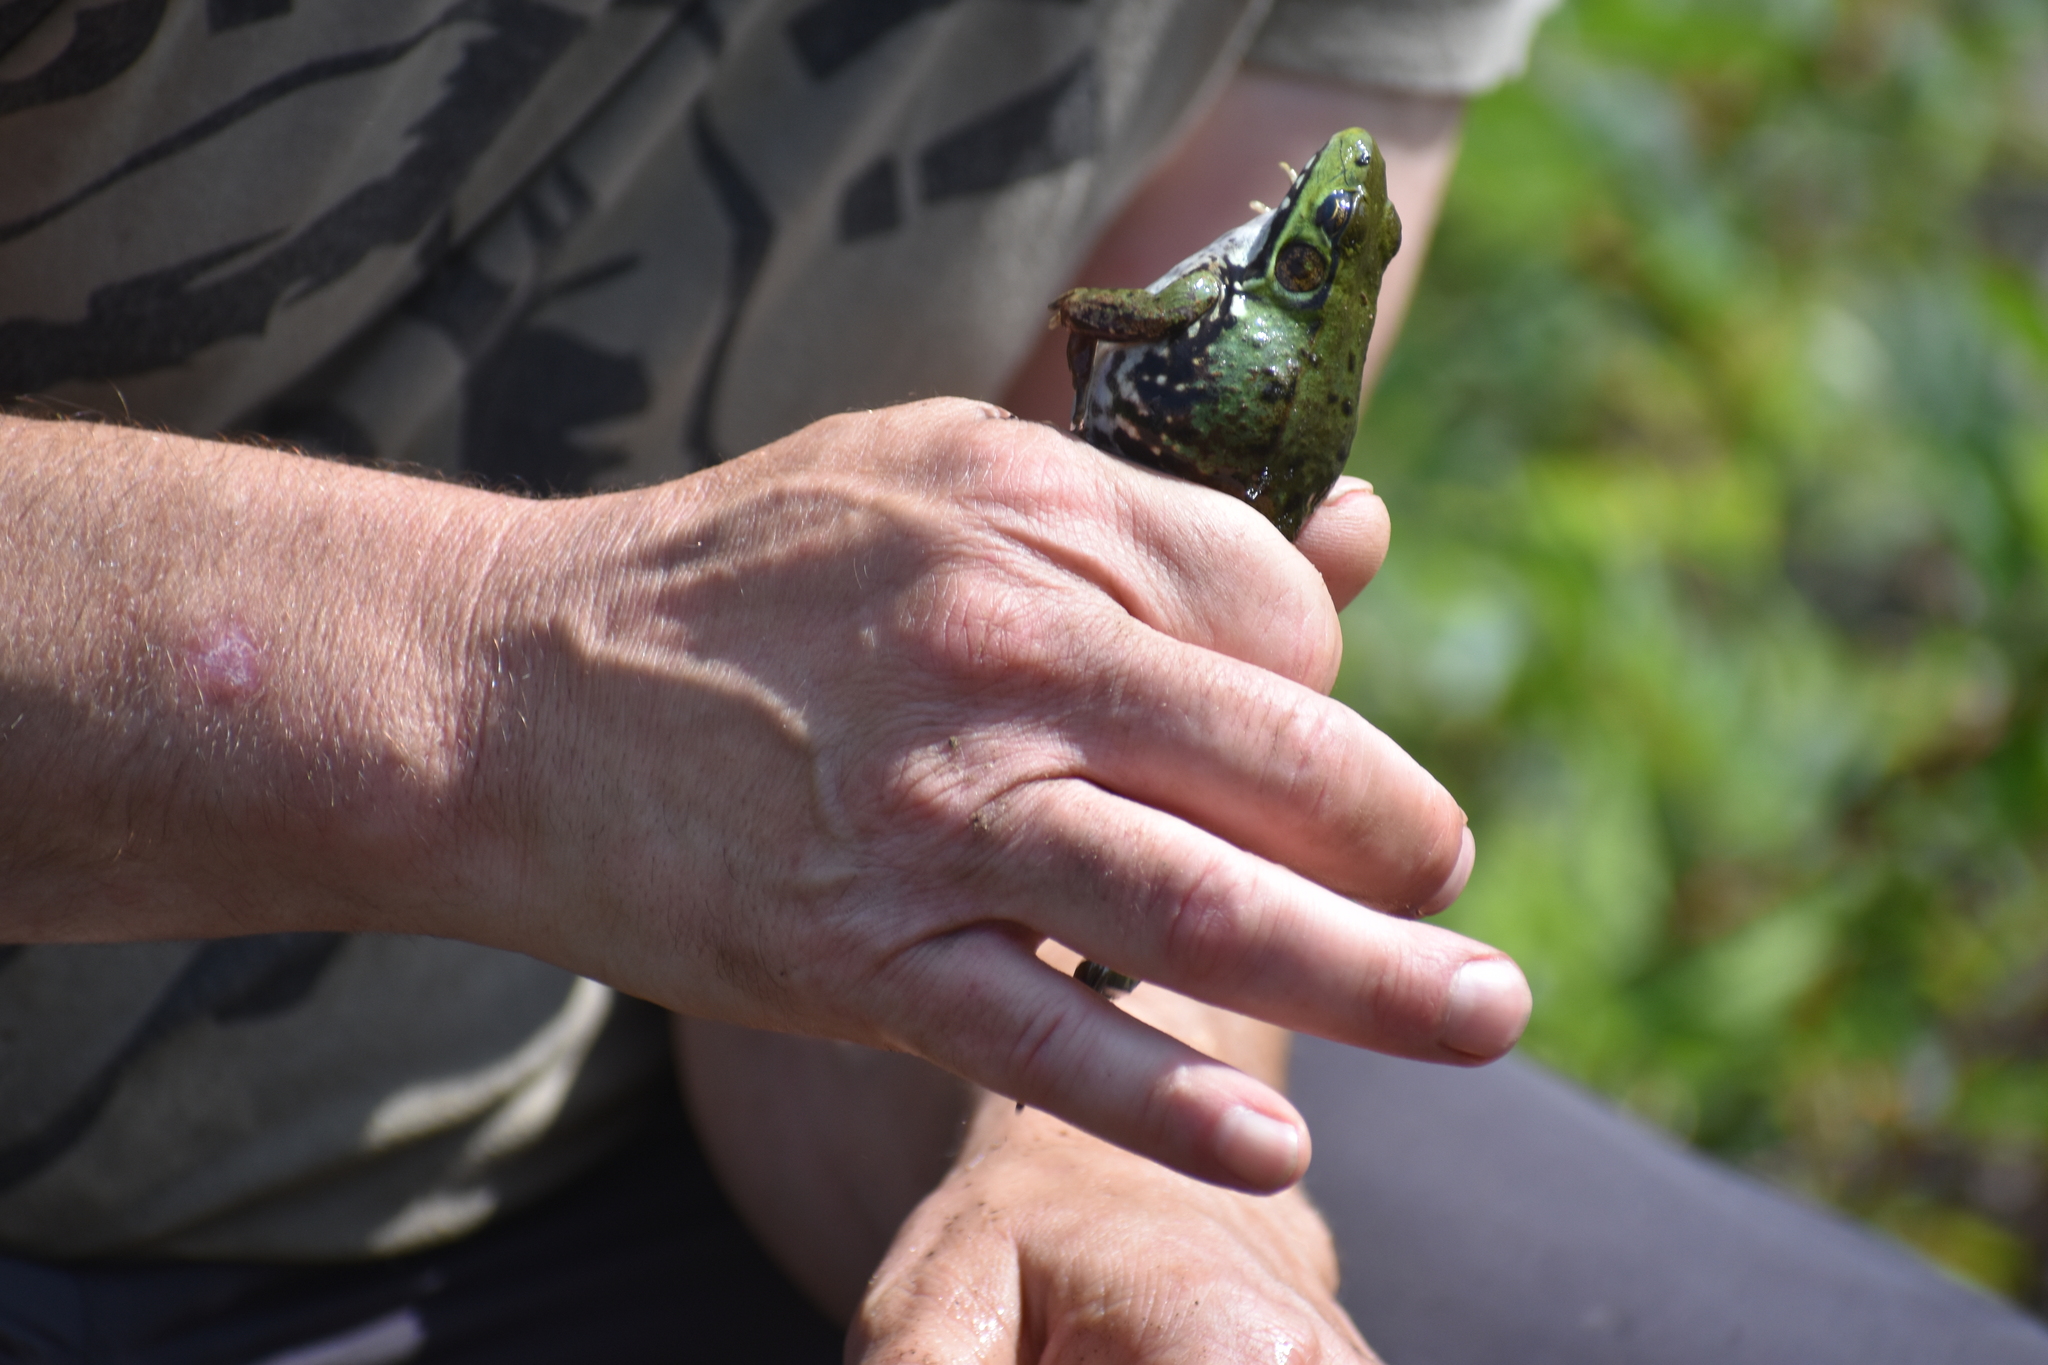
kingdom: Animalia
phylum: Chordata
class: Amphibia
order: Anura
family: Ranidae
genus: Lithobates
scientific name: Lithobates clamitans
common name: Green frog
